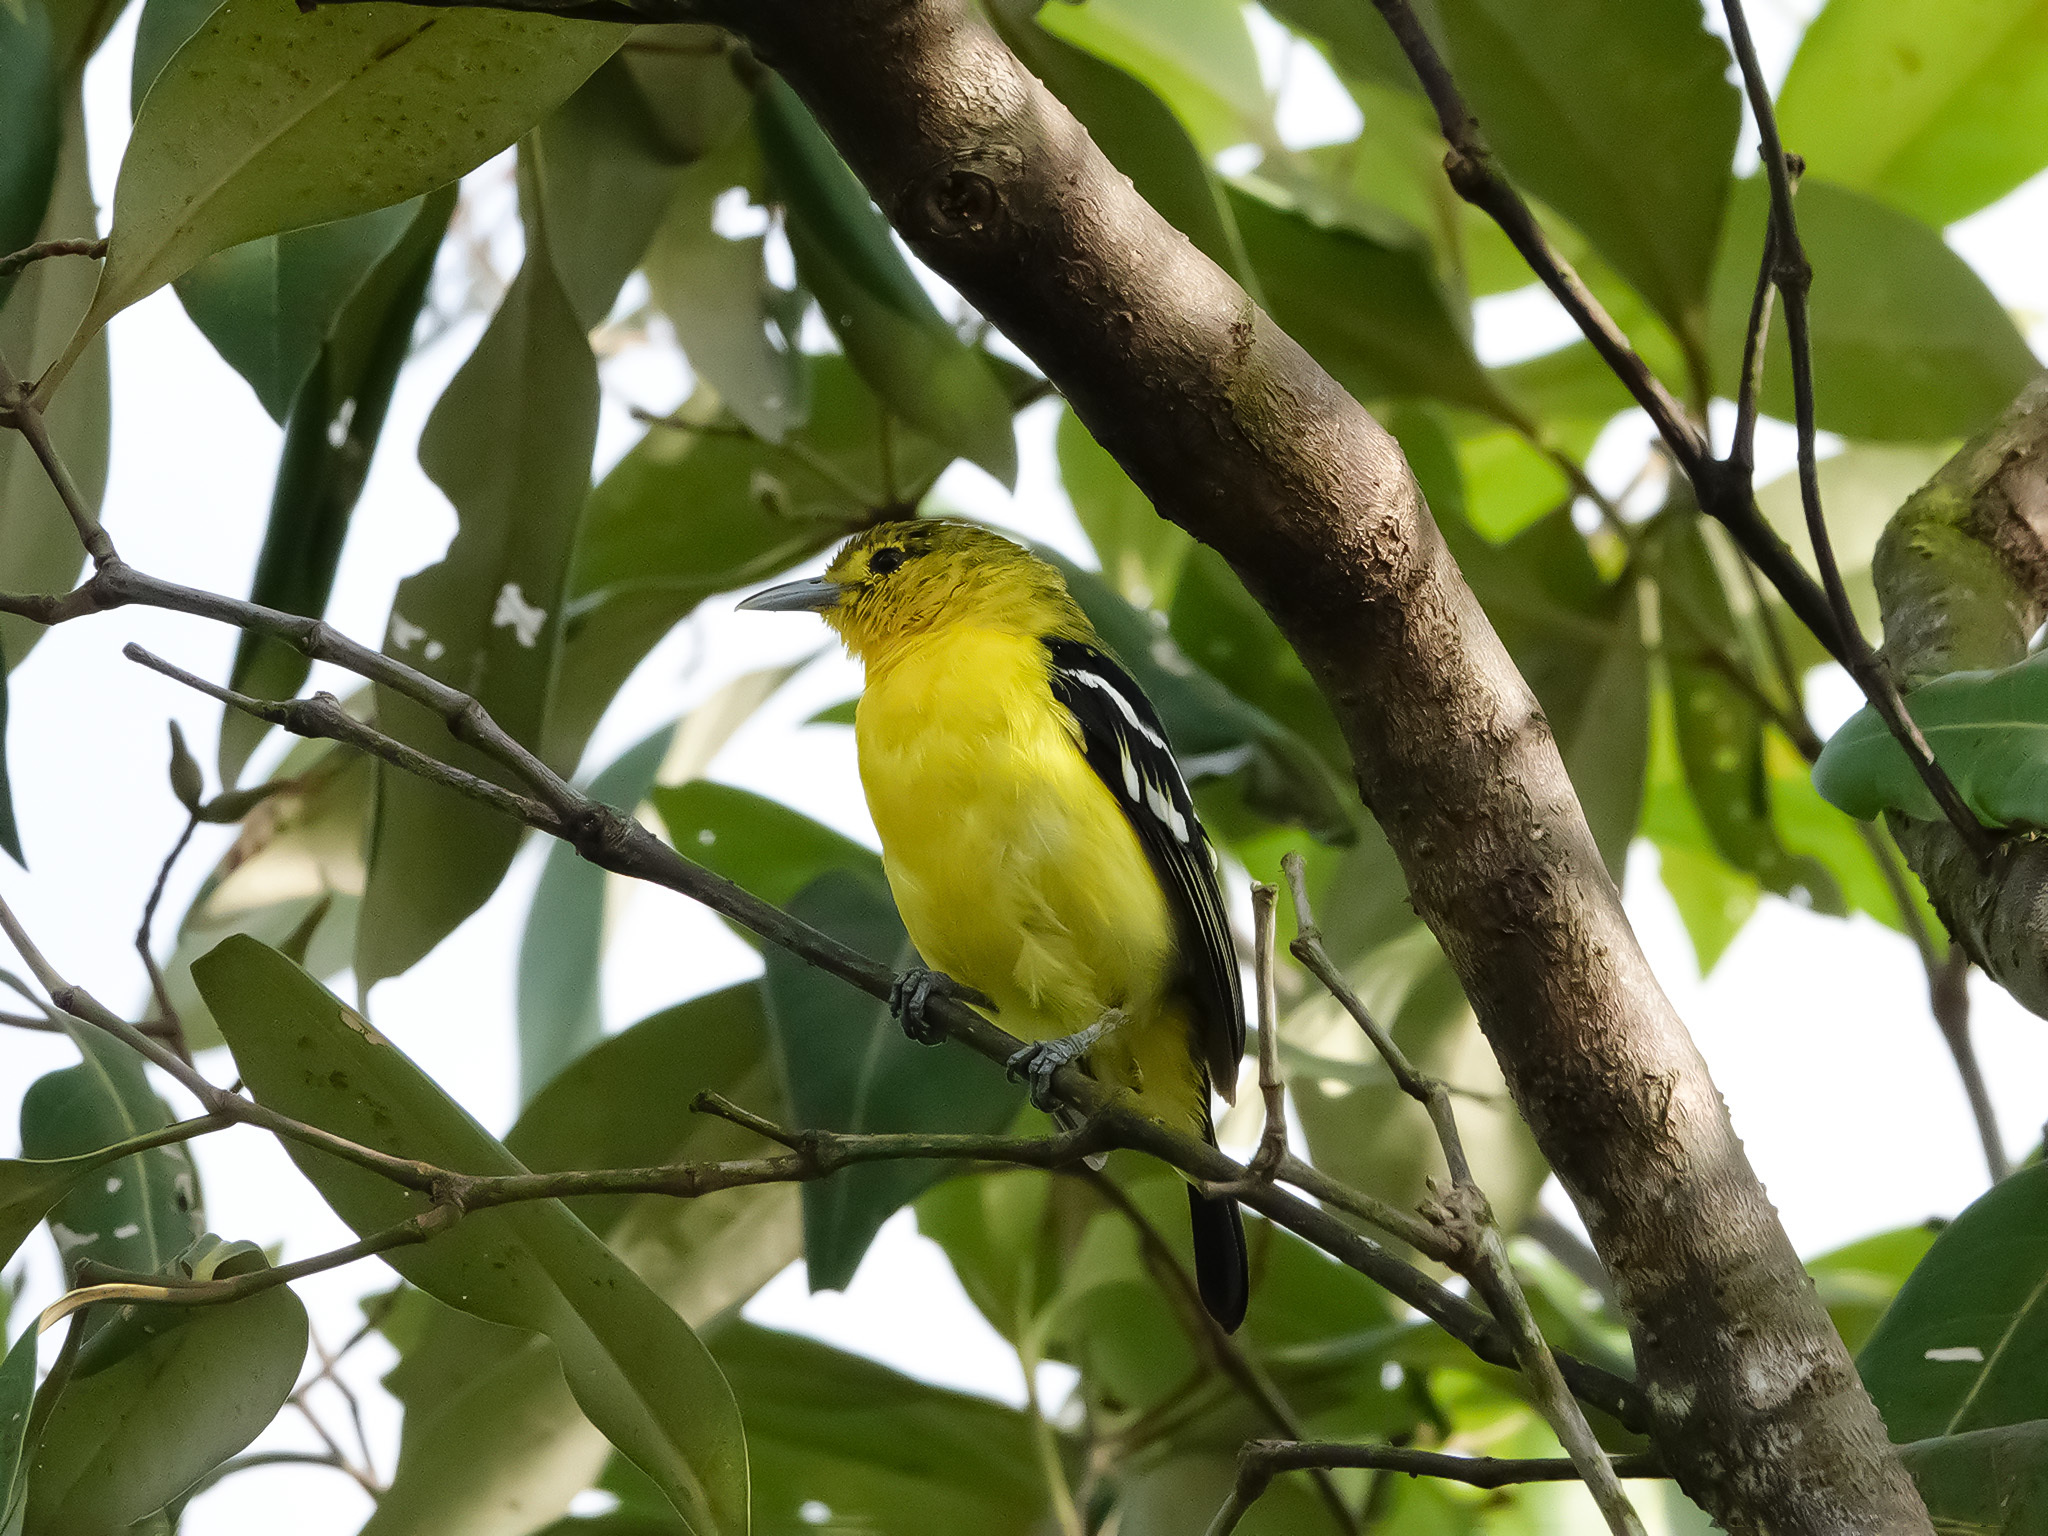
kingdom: Animalia
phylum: Chordata
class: Aves
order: Passeriformes
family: Aegithinidae
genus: Aegithina
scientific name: Aegithina tiphia
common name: Common iora
